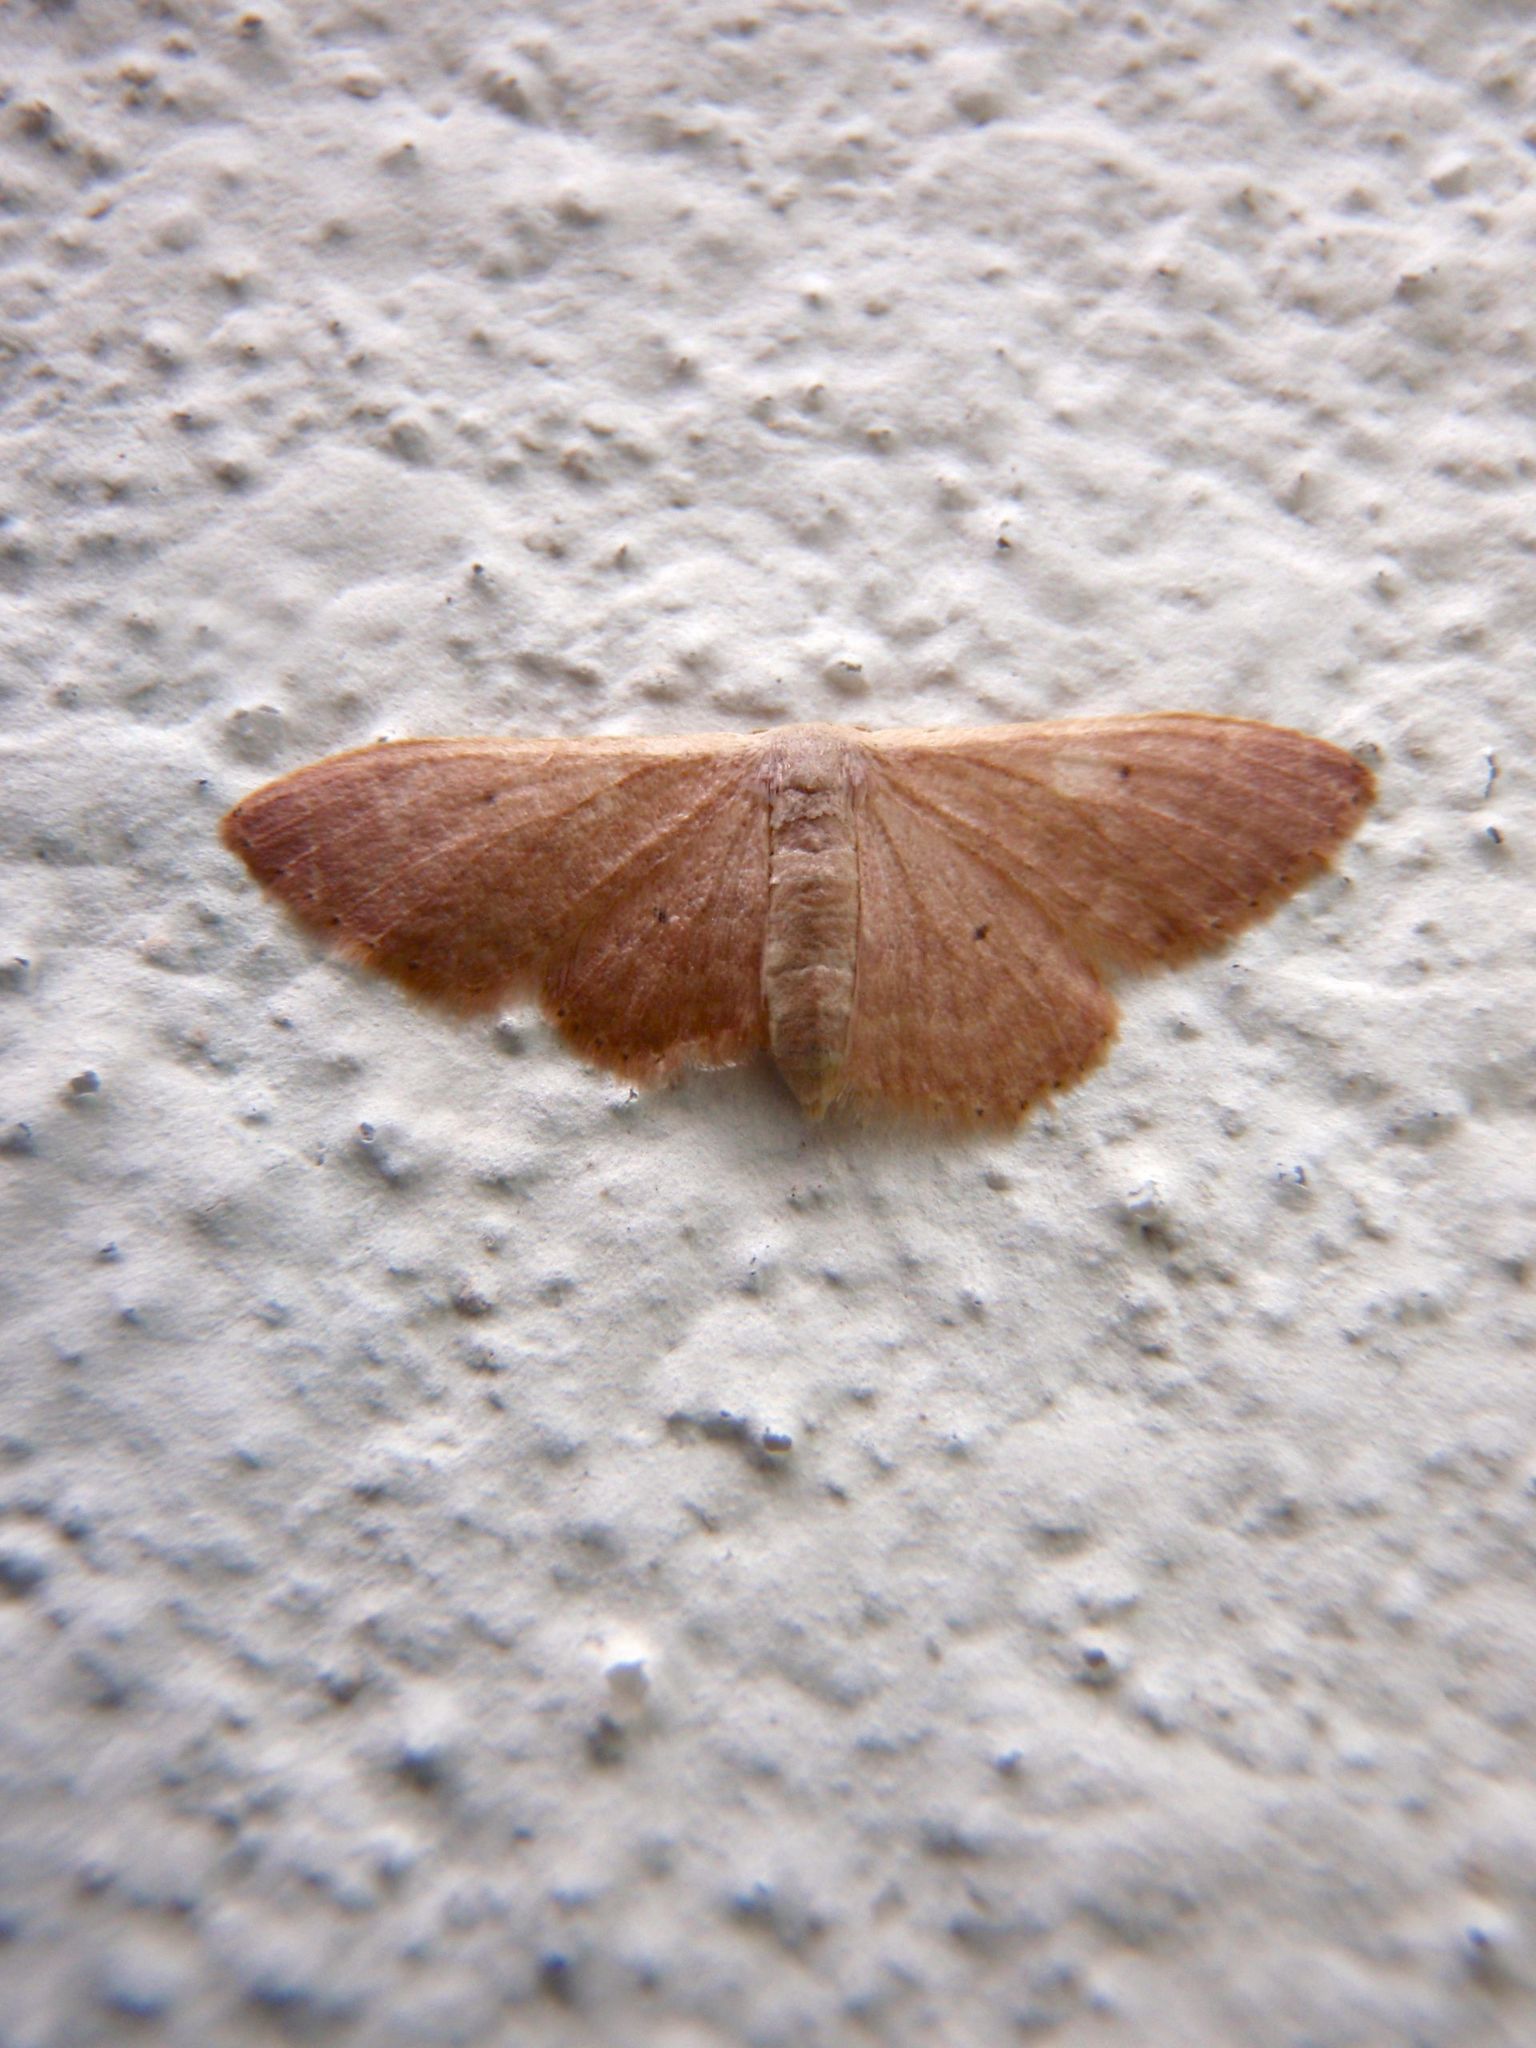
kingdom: Animalia
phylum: Arthropoda
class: Insecta
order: Lepidoptera
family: Geometridae
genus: Idaea
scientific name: Idaea distinctaria
